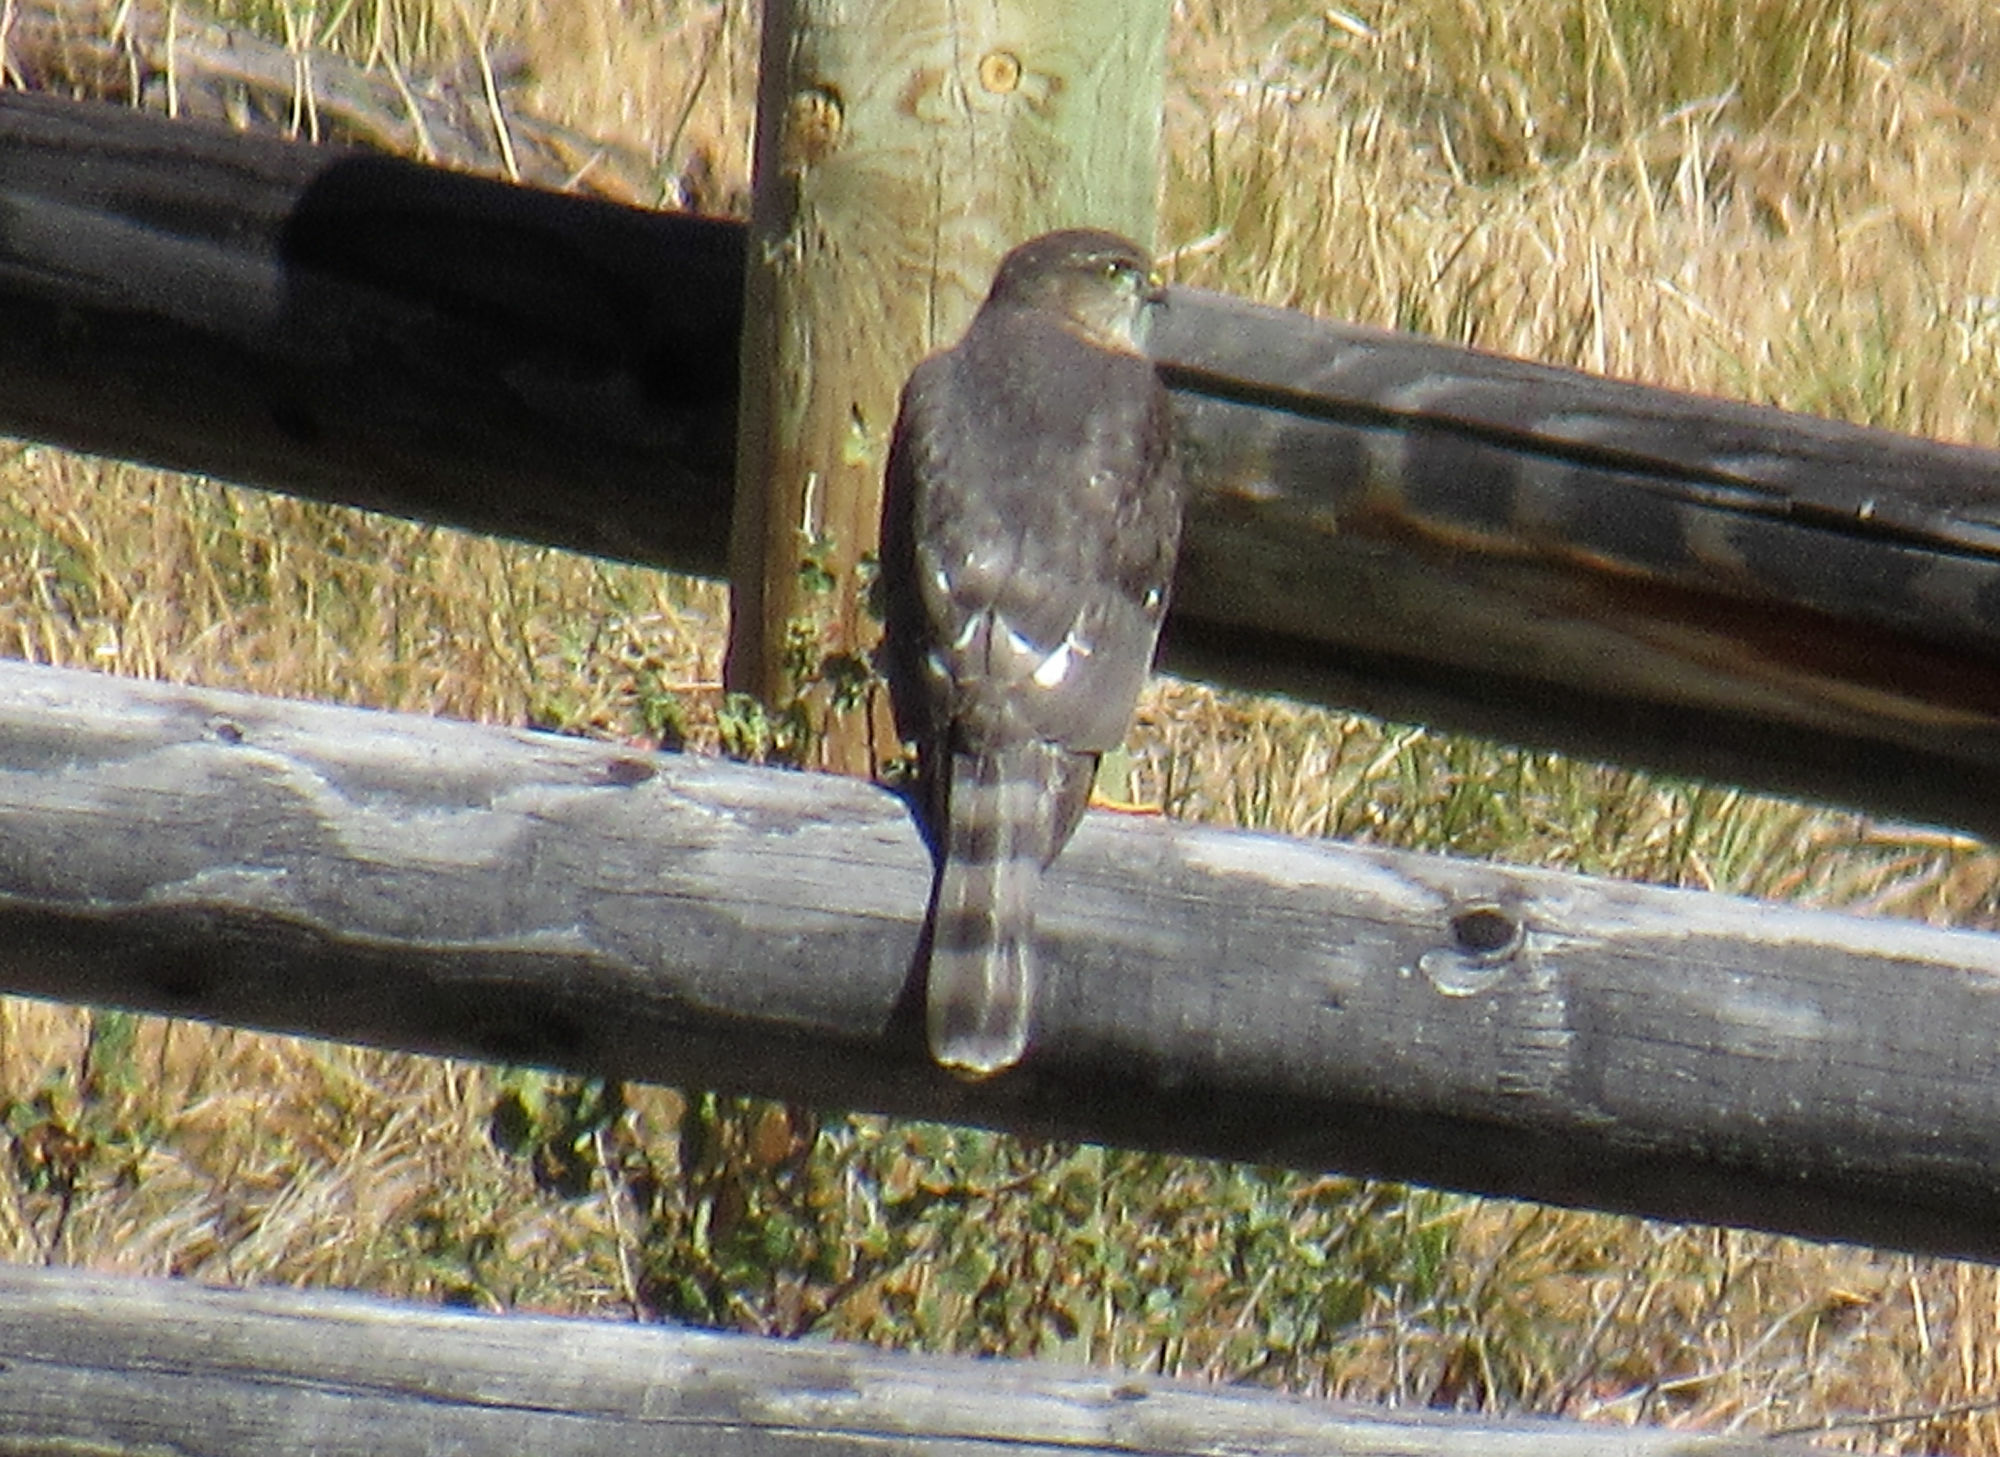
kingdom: Animalia
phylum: Chordata
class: Aves
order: Accipitriformes
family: Accipitridae
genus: Accipiter
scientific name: Accipiter striatus
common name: Sharp-shinned hawk
